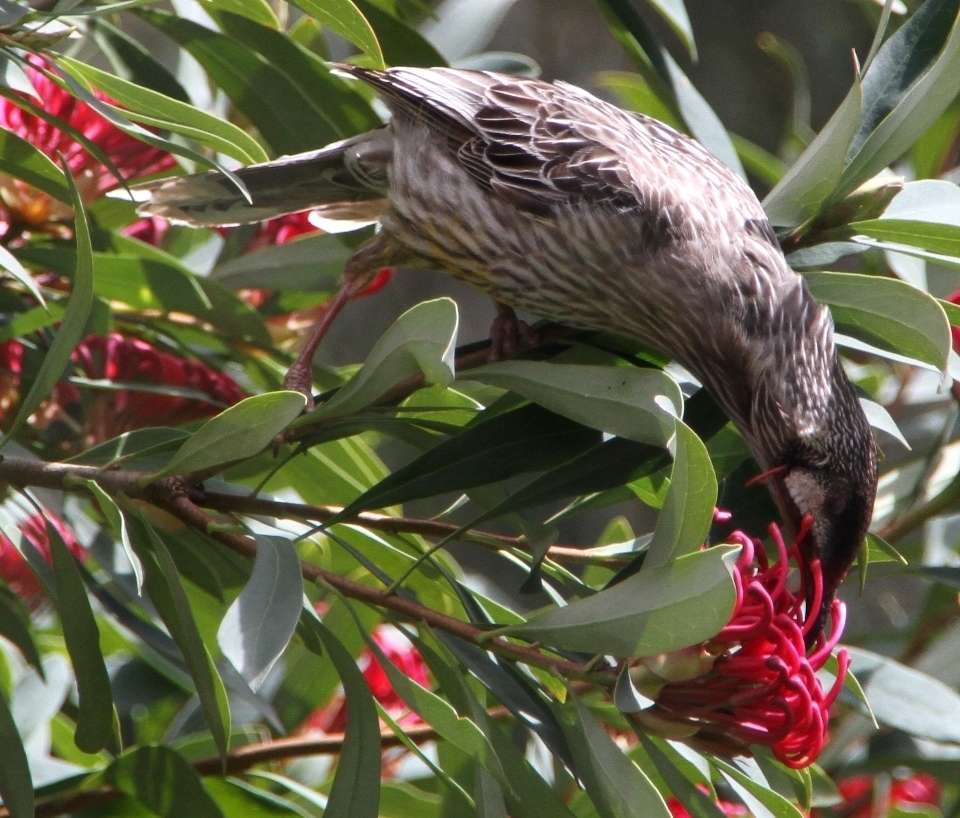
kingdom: Animalia
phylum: Chordata
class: Aves
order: Passeriformes
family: Meliphagidae
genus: Anthochaera
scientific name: Anthochaera carunculata
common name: Red wattlebird
